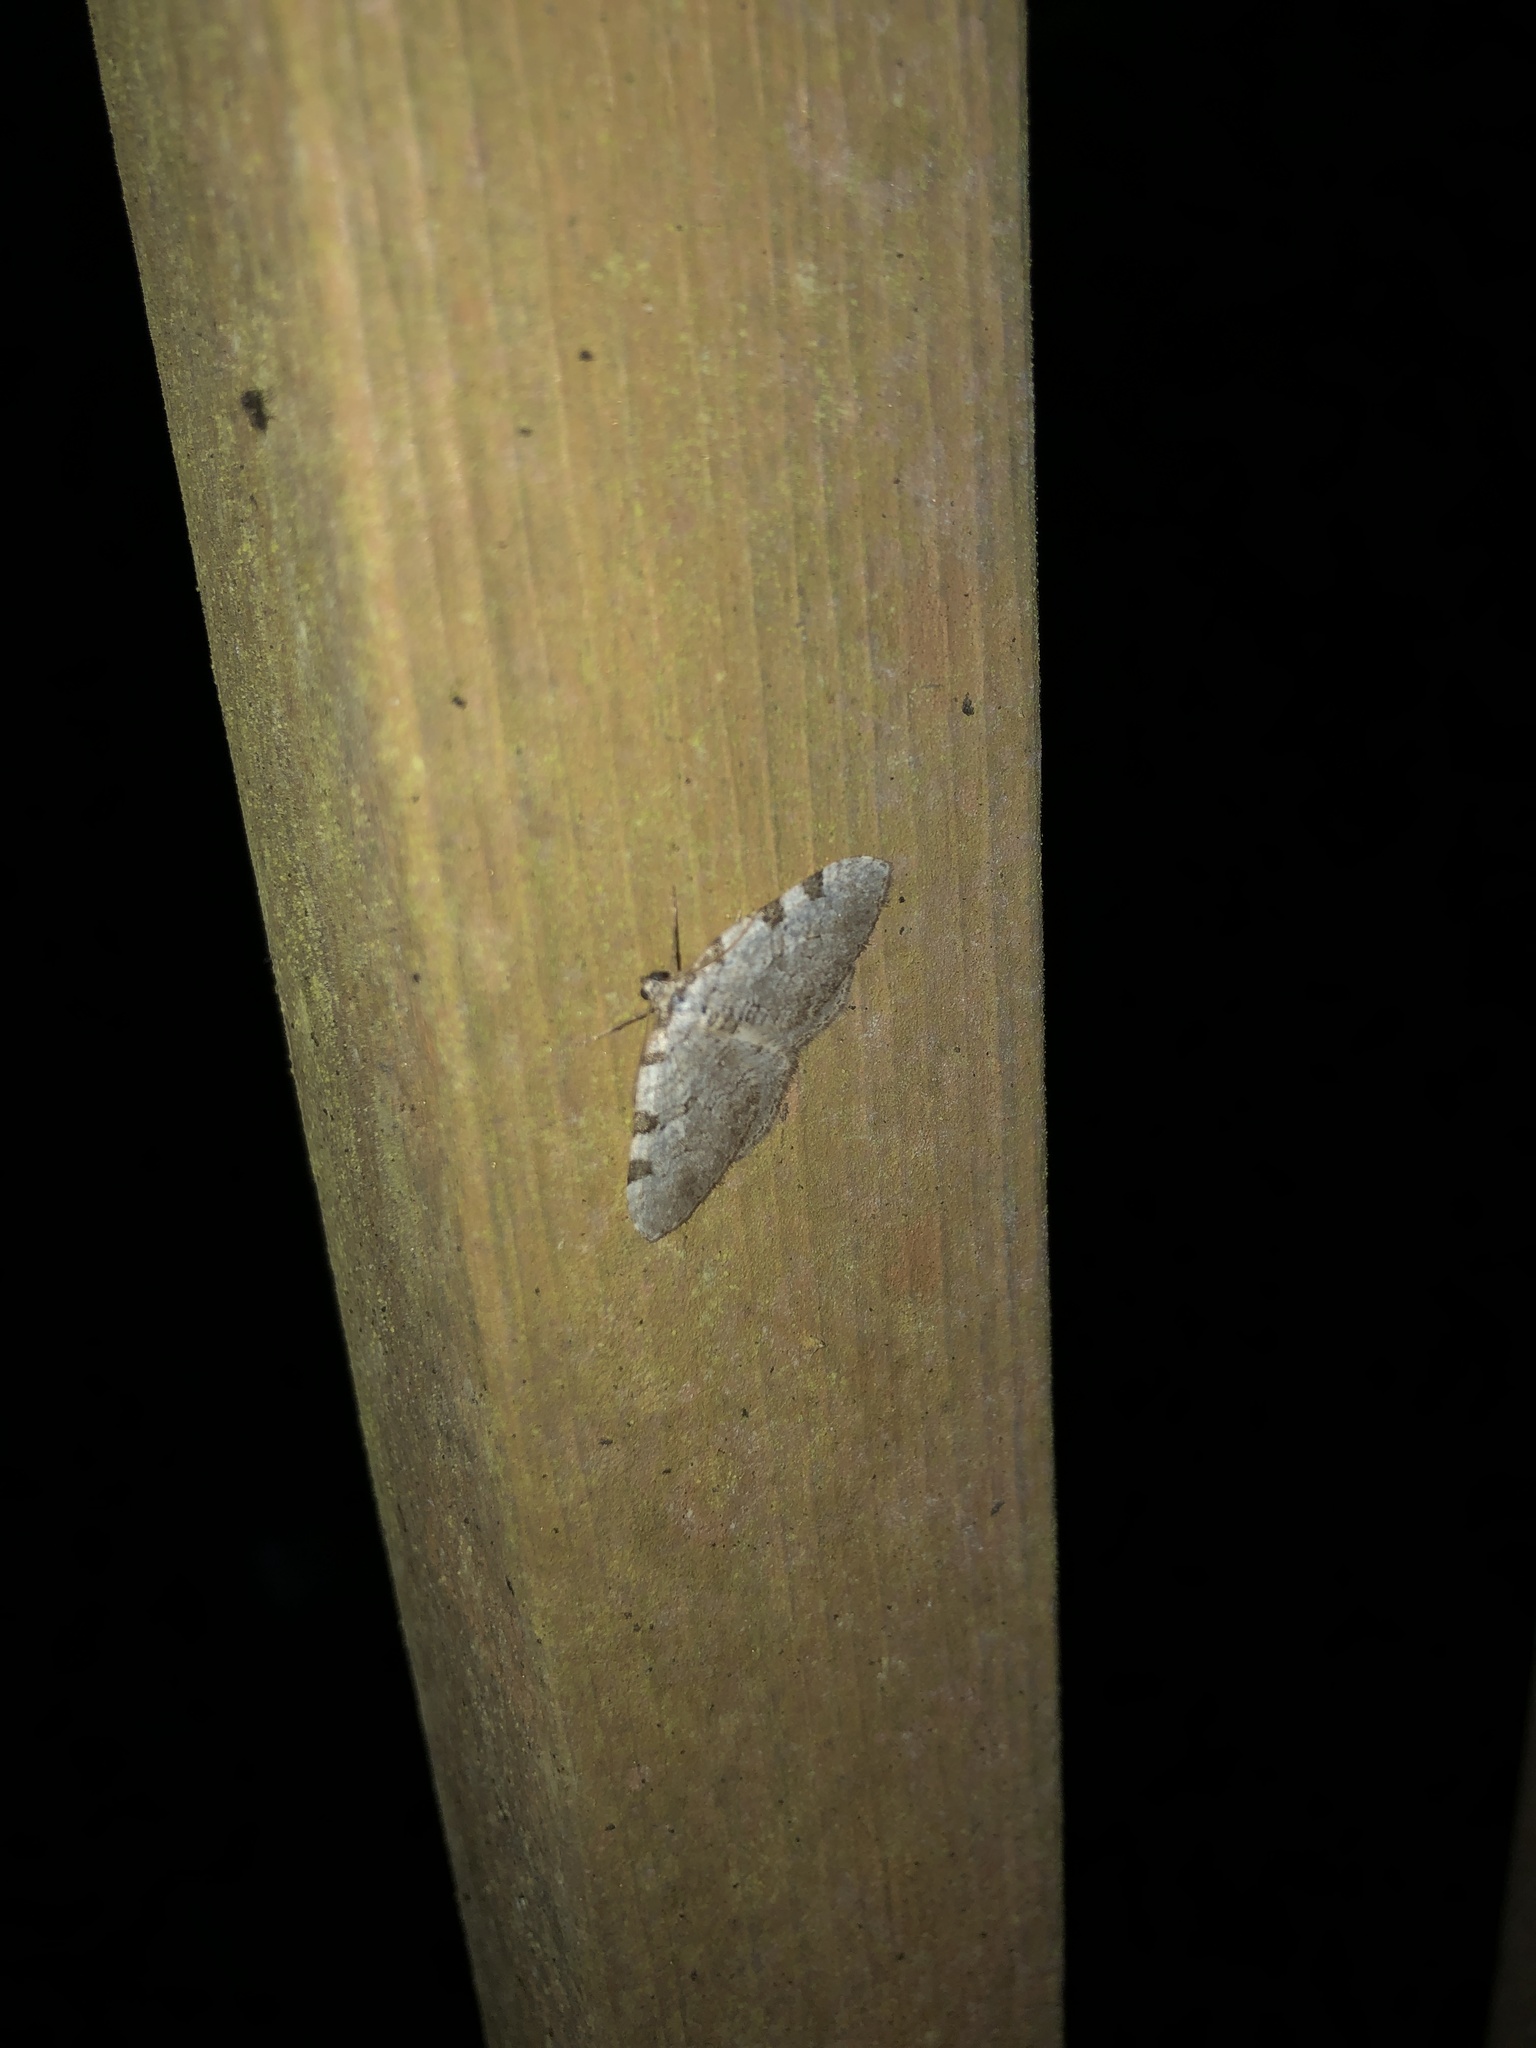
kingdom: Animalia
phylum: Arthropoda
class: Insecta
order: Lepidoptera
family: Geometridae
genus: Perizoma
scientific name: Perizoma costiguttata
